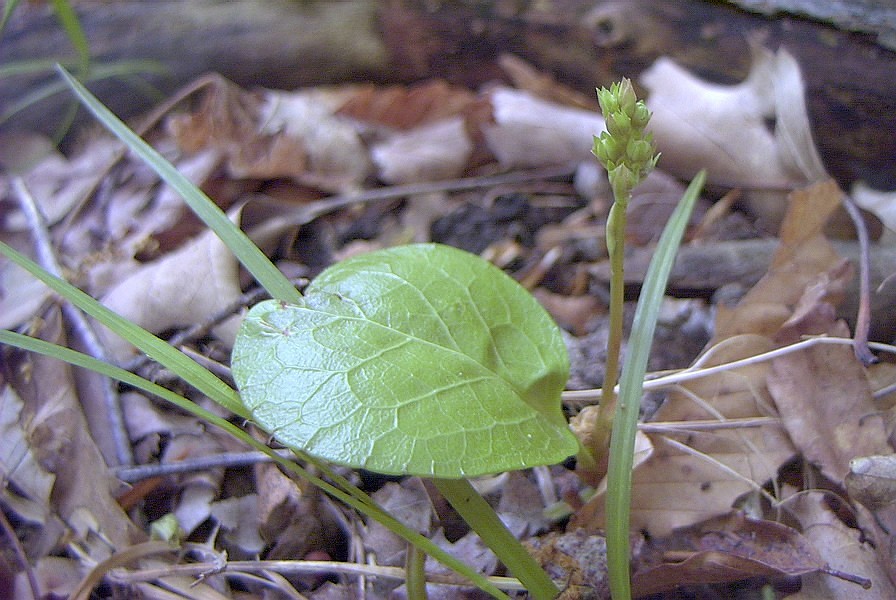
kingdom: Plantae
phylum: Tracheophyta
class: Magnoliopsida
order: Ericales
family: Ericaceae
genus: Pyrola
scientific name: Pyrola americana
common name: American wintergreen
